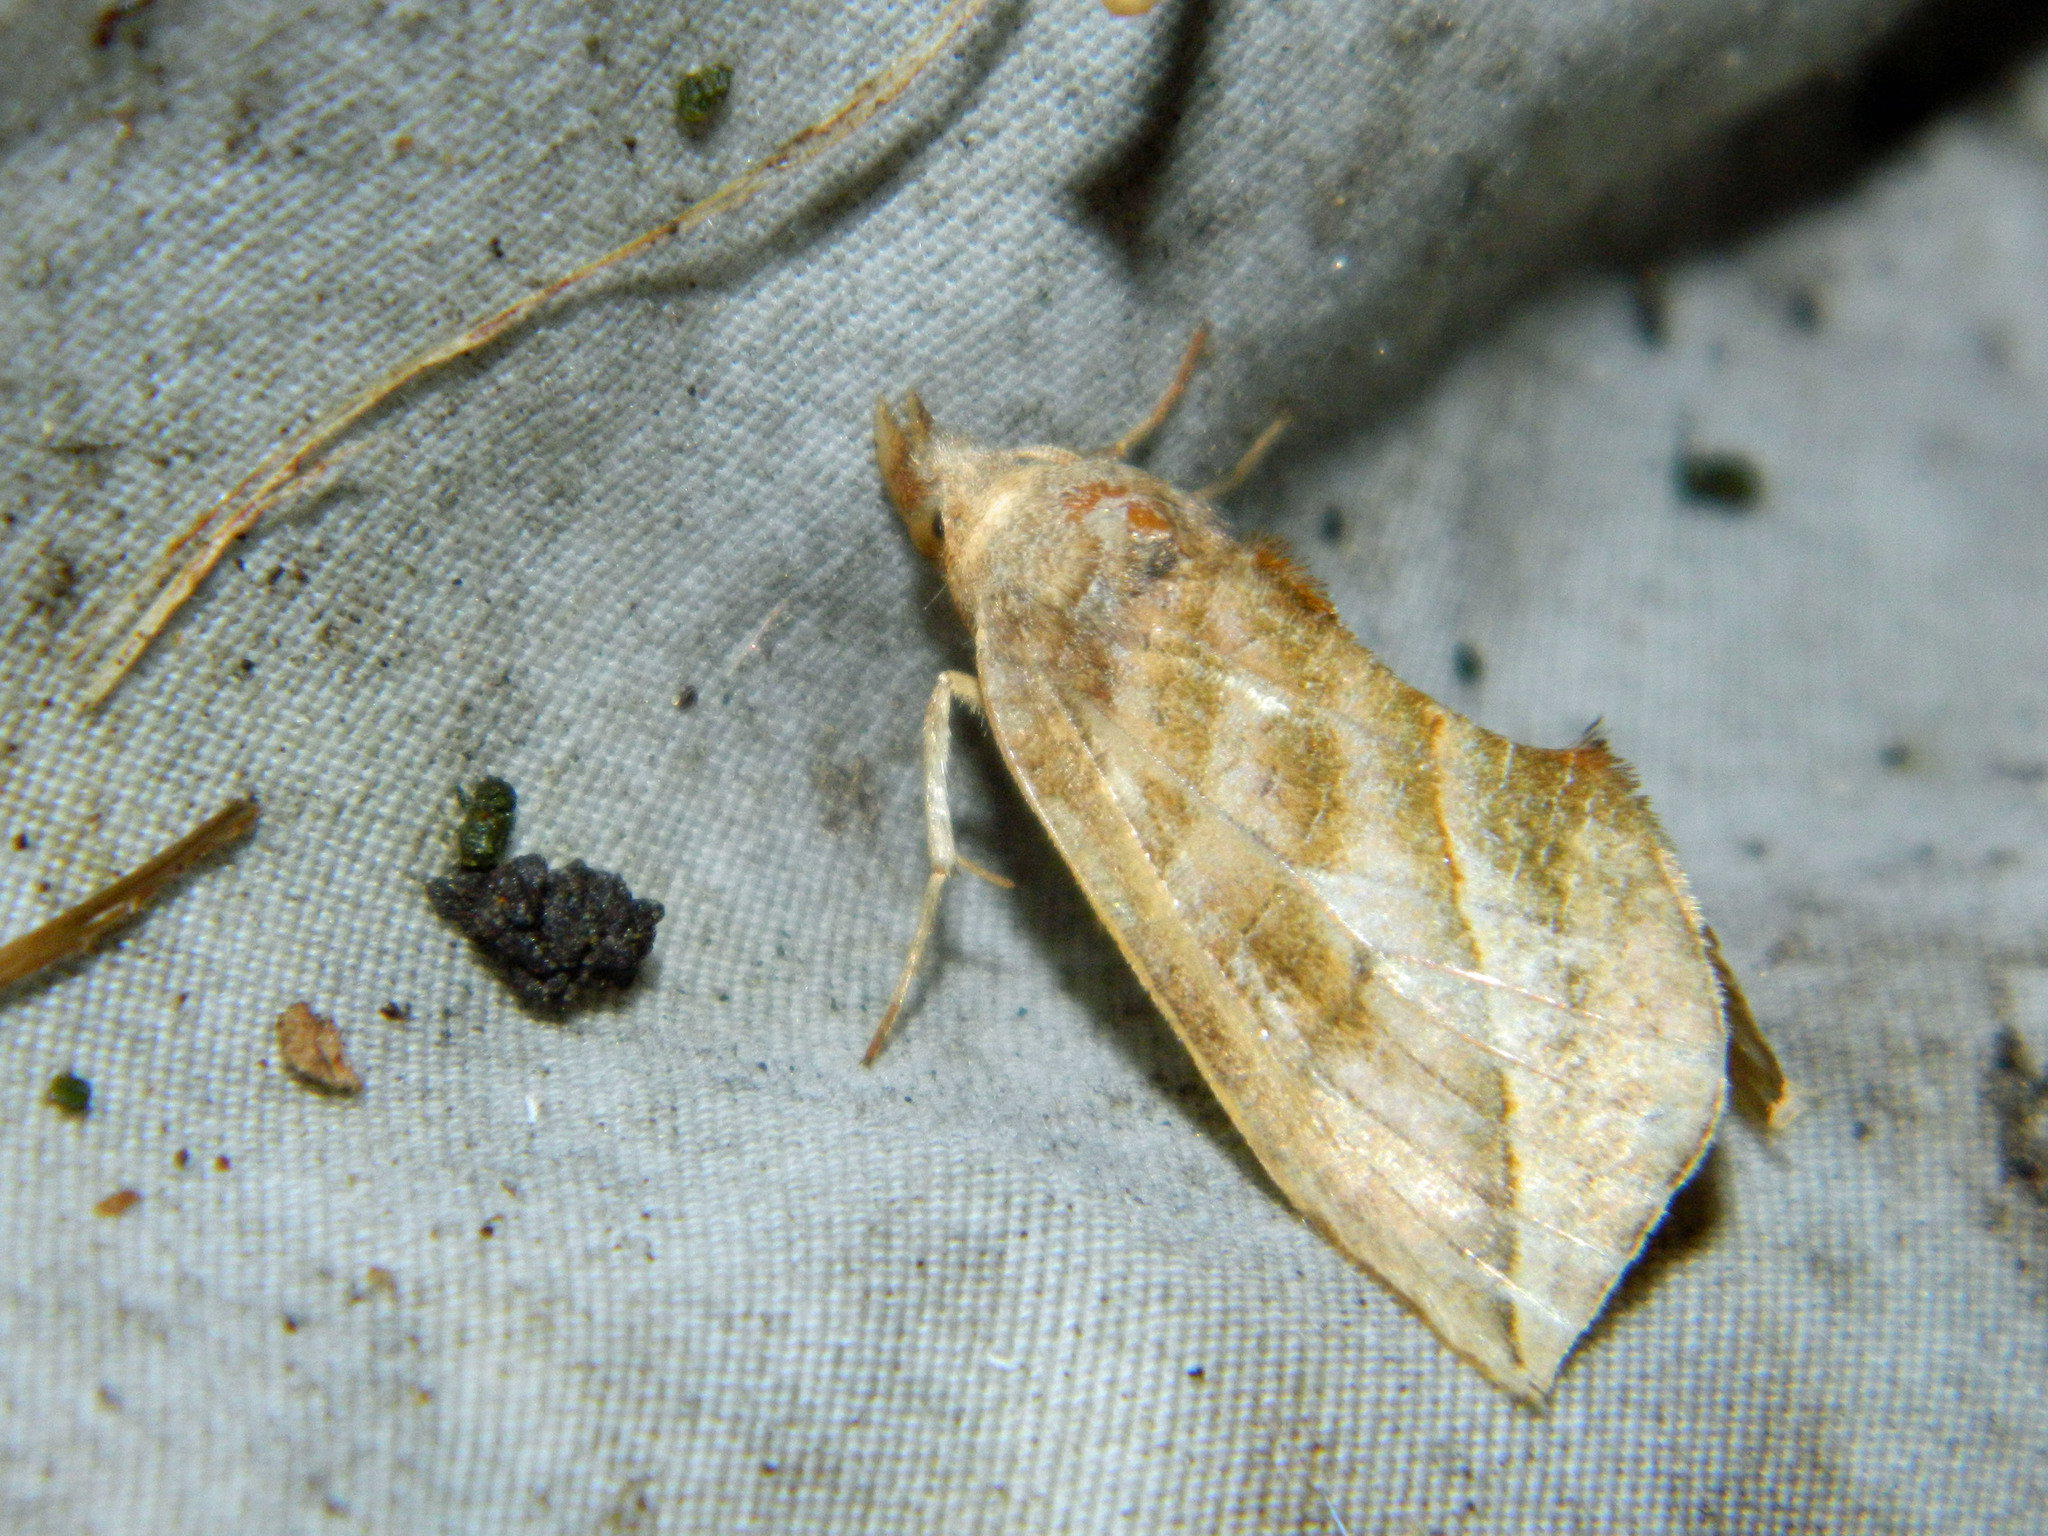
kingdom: Animalia
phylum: Arthropoda
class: Insecta
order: Lepidoptera
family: Erebidae
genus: Calyptra
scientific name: Calyptra canadensis
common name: Canadian owlet
